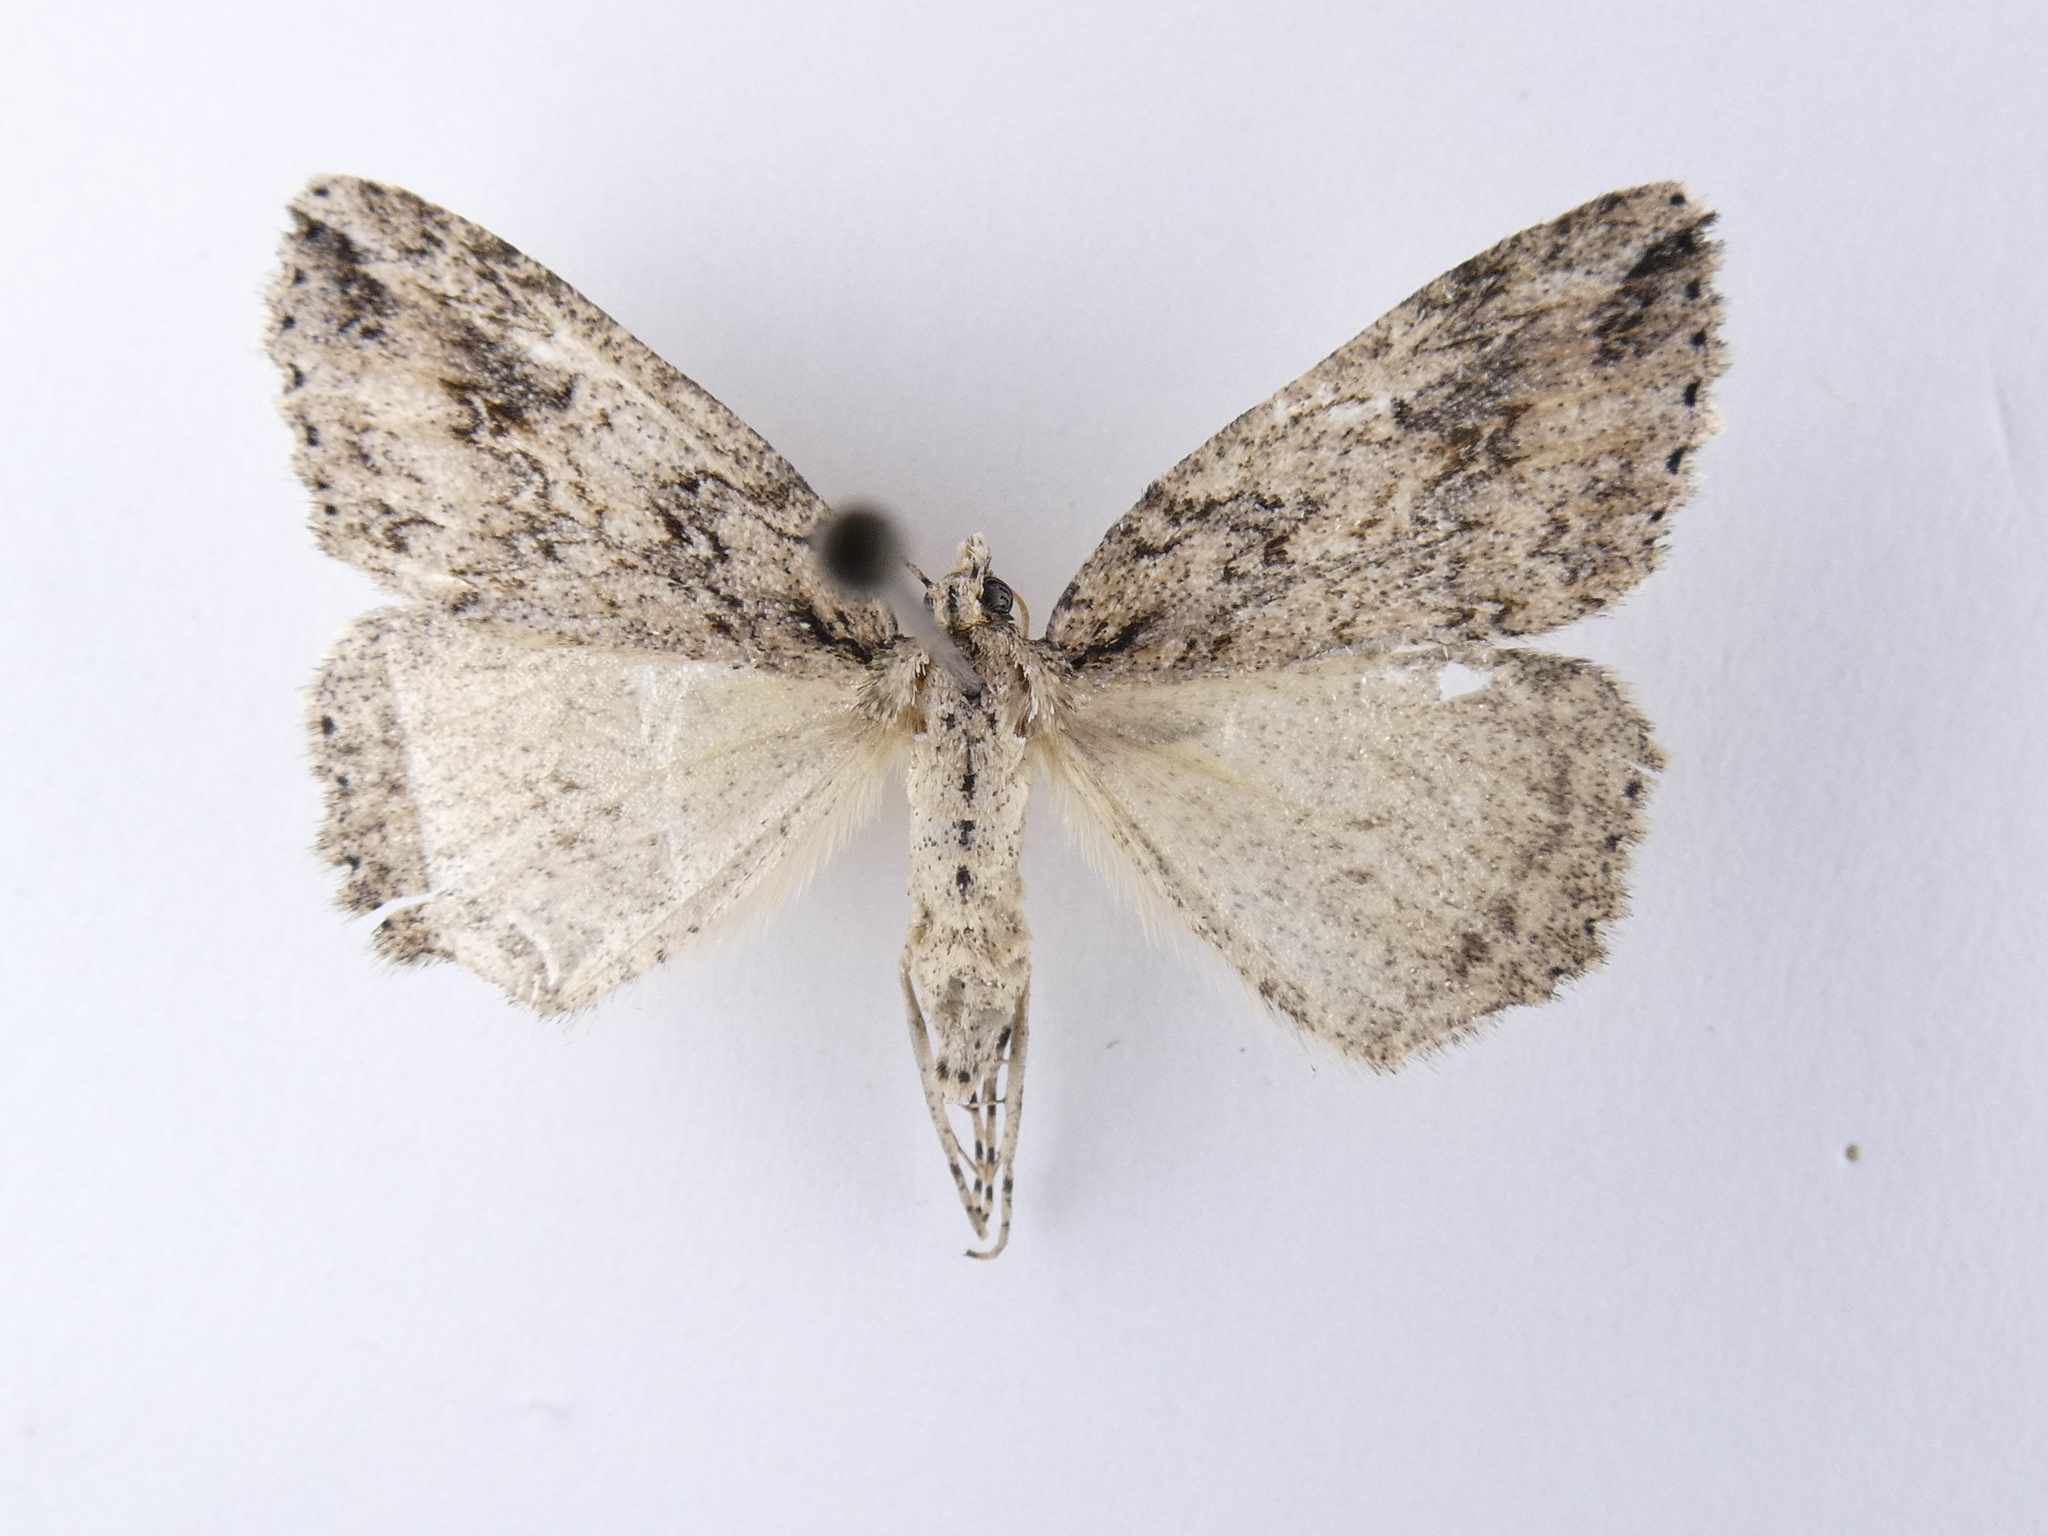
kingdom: Animalia
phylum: Arthropoda
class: Insecta
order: Lepidoptera
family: Geometridae
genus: Pseudocoremia
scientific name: Pseudocoremia rudisata
